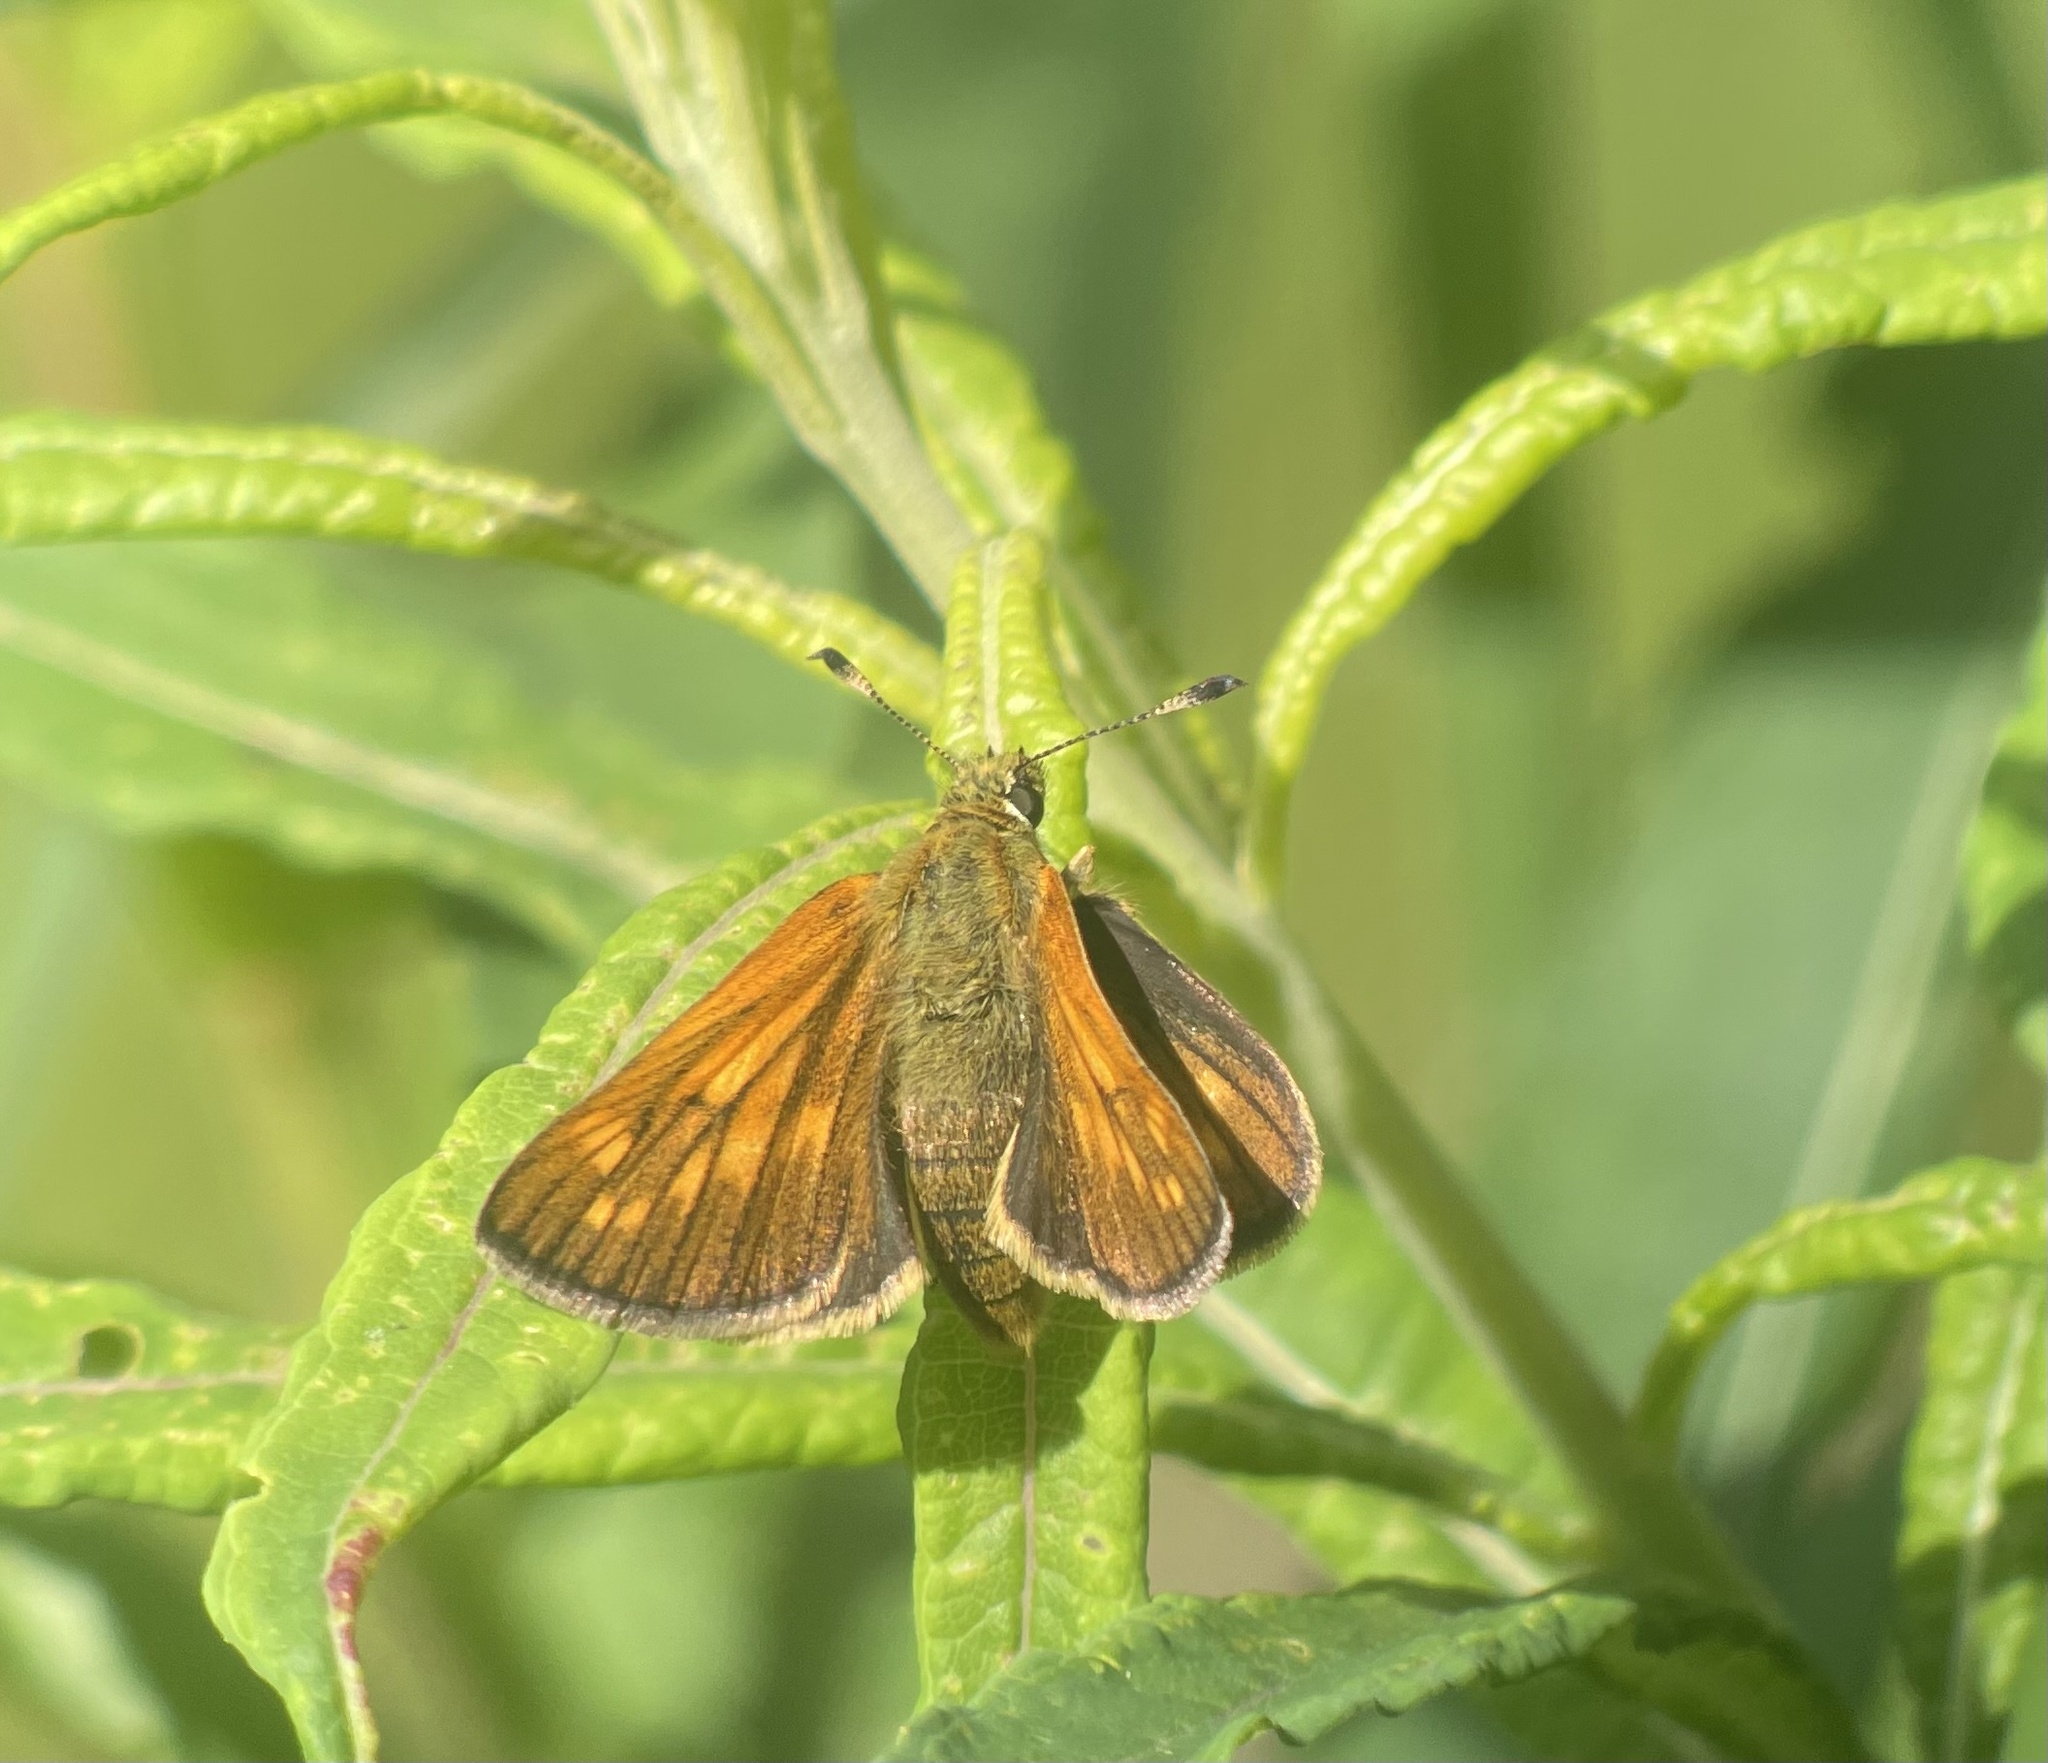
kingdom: Animalia
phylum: Arthropoda
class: Insecta
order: Lepidoptera
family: Hesperiidae
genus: Ochlodes
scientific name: Ochlodes venata
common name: Large skipper
